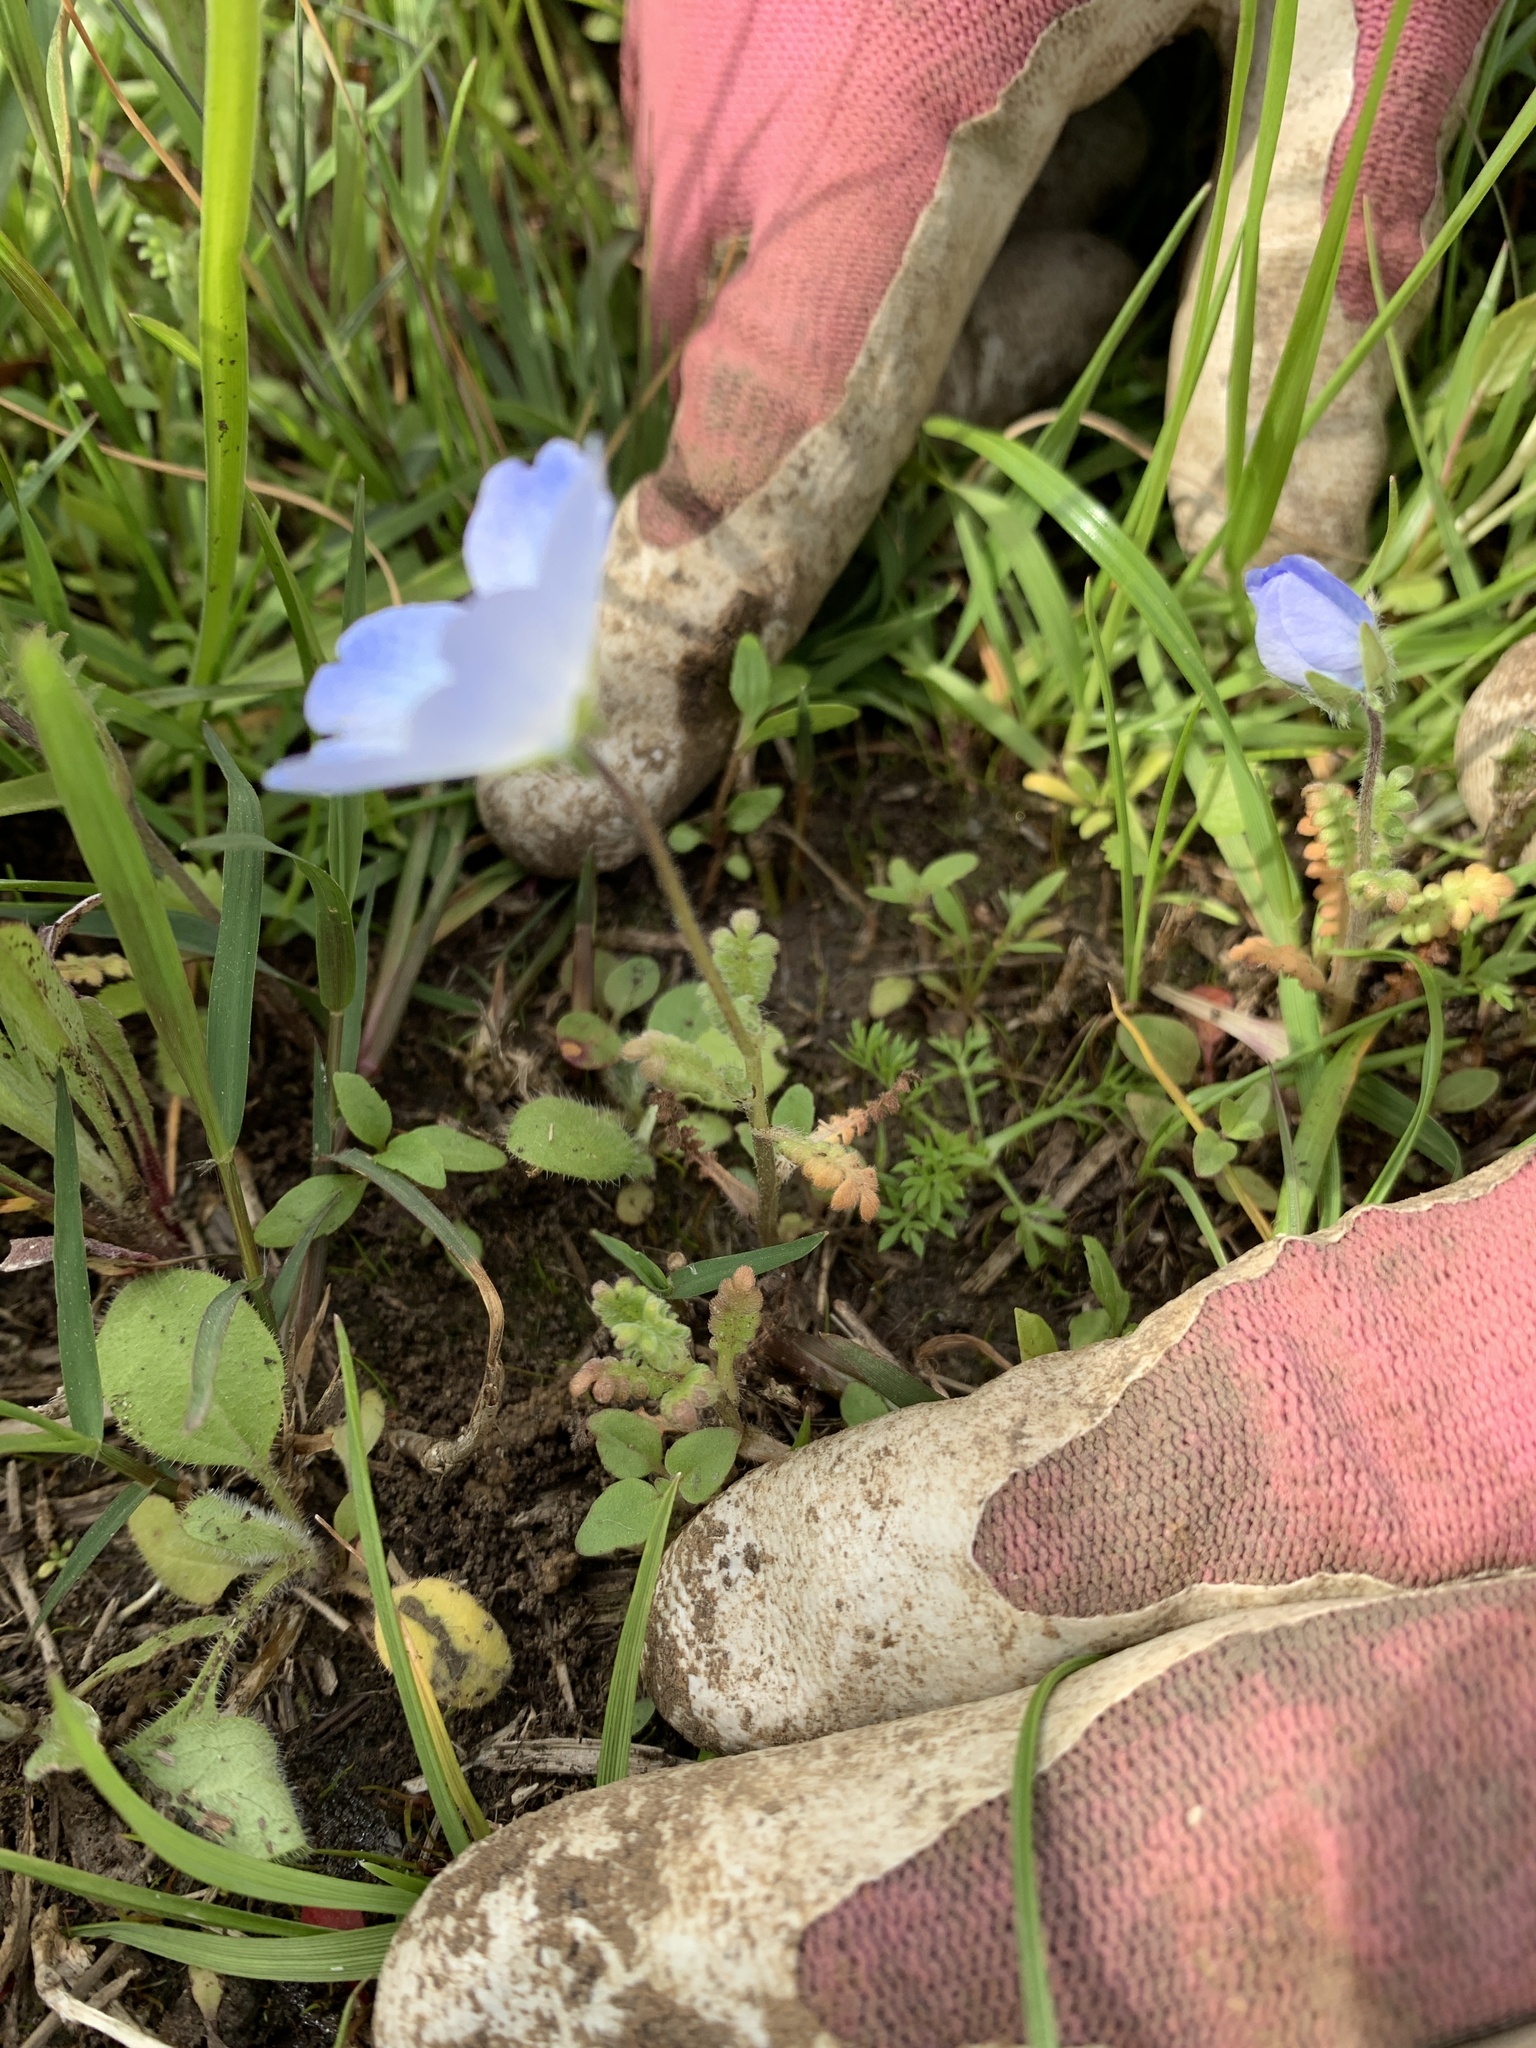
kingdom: Plantae
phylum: Tracheophyta
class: Magnoliopsida
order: Boraginales
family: Hydrophyllaceae
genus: Nemophila
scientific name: Nemophila phacelioides
